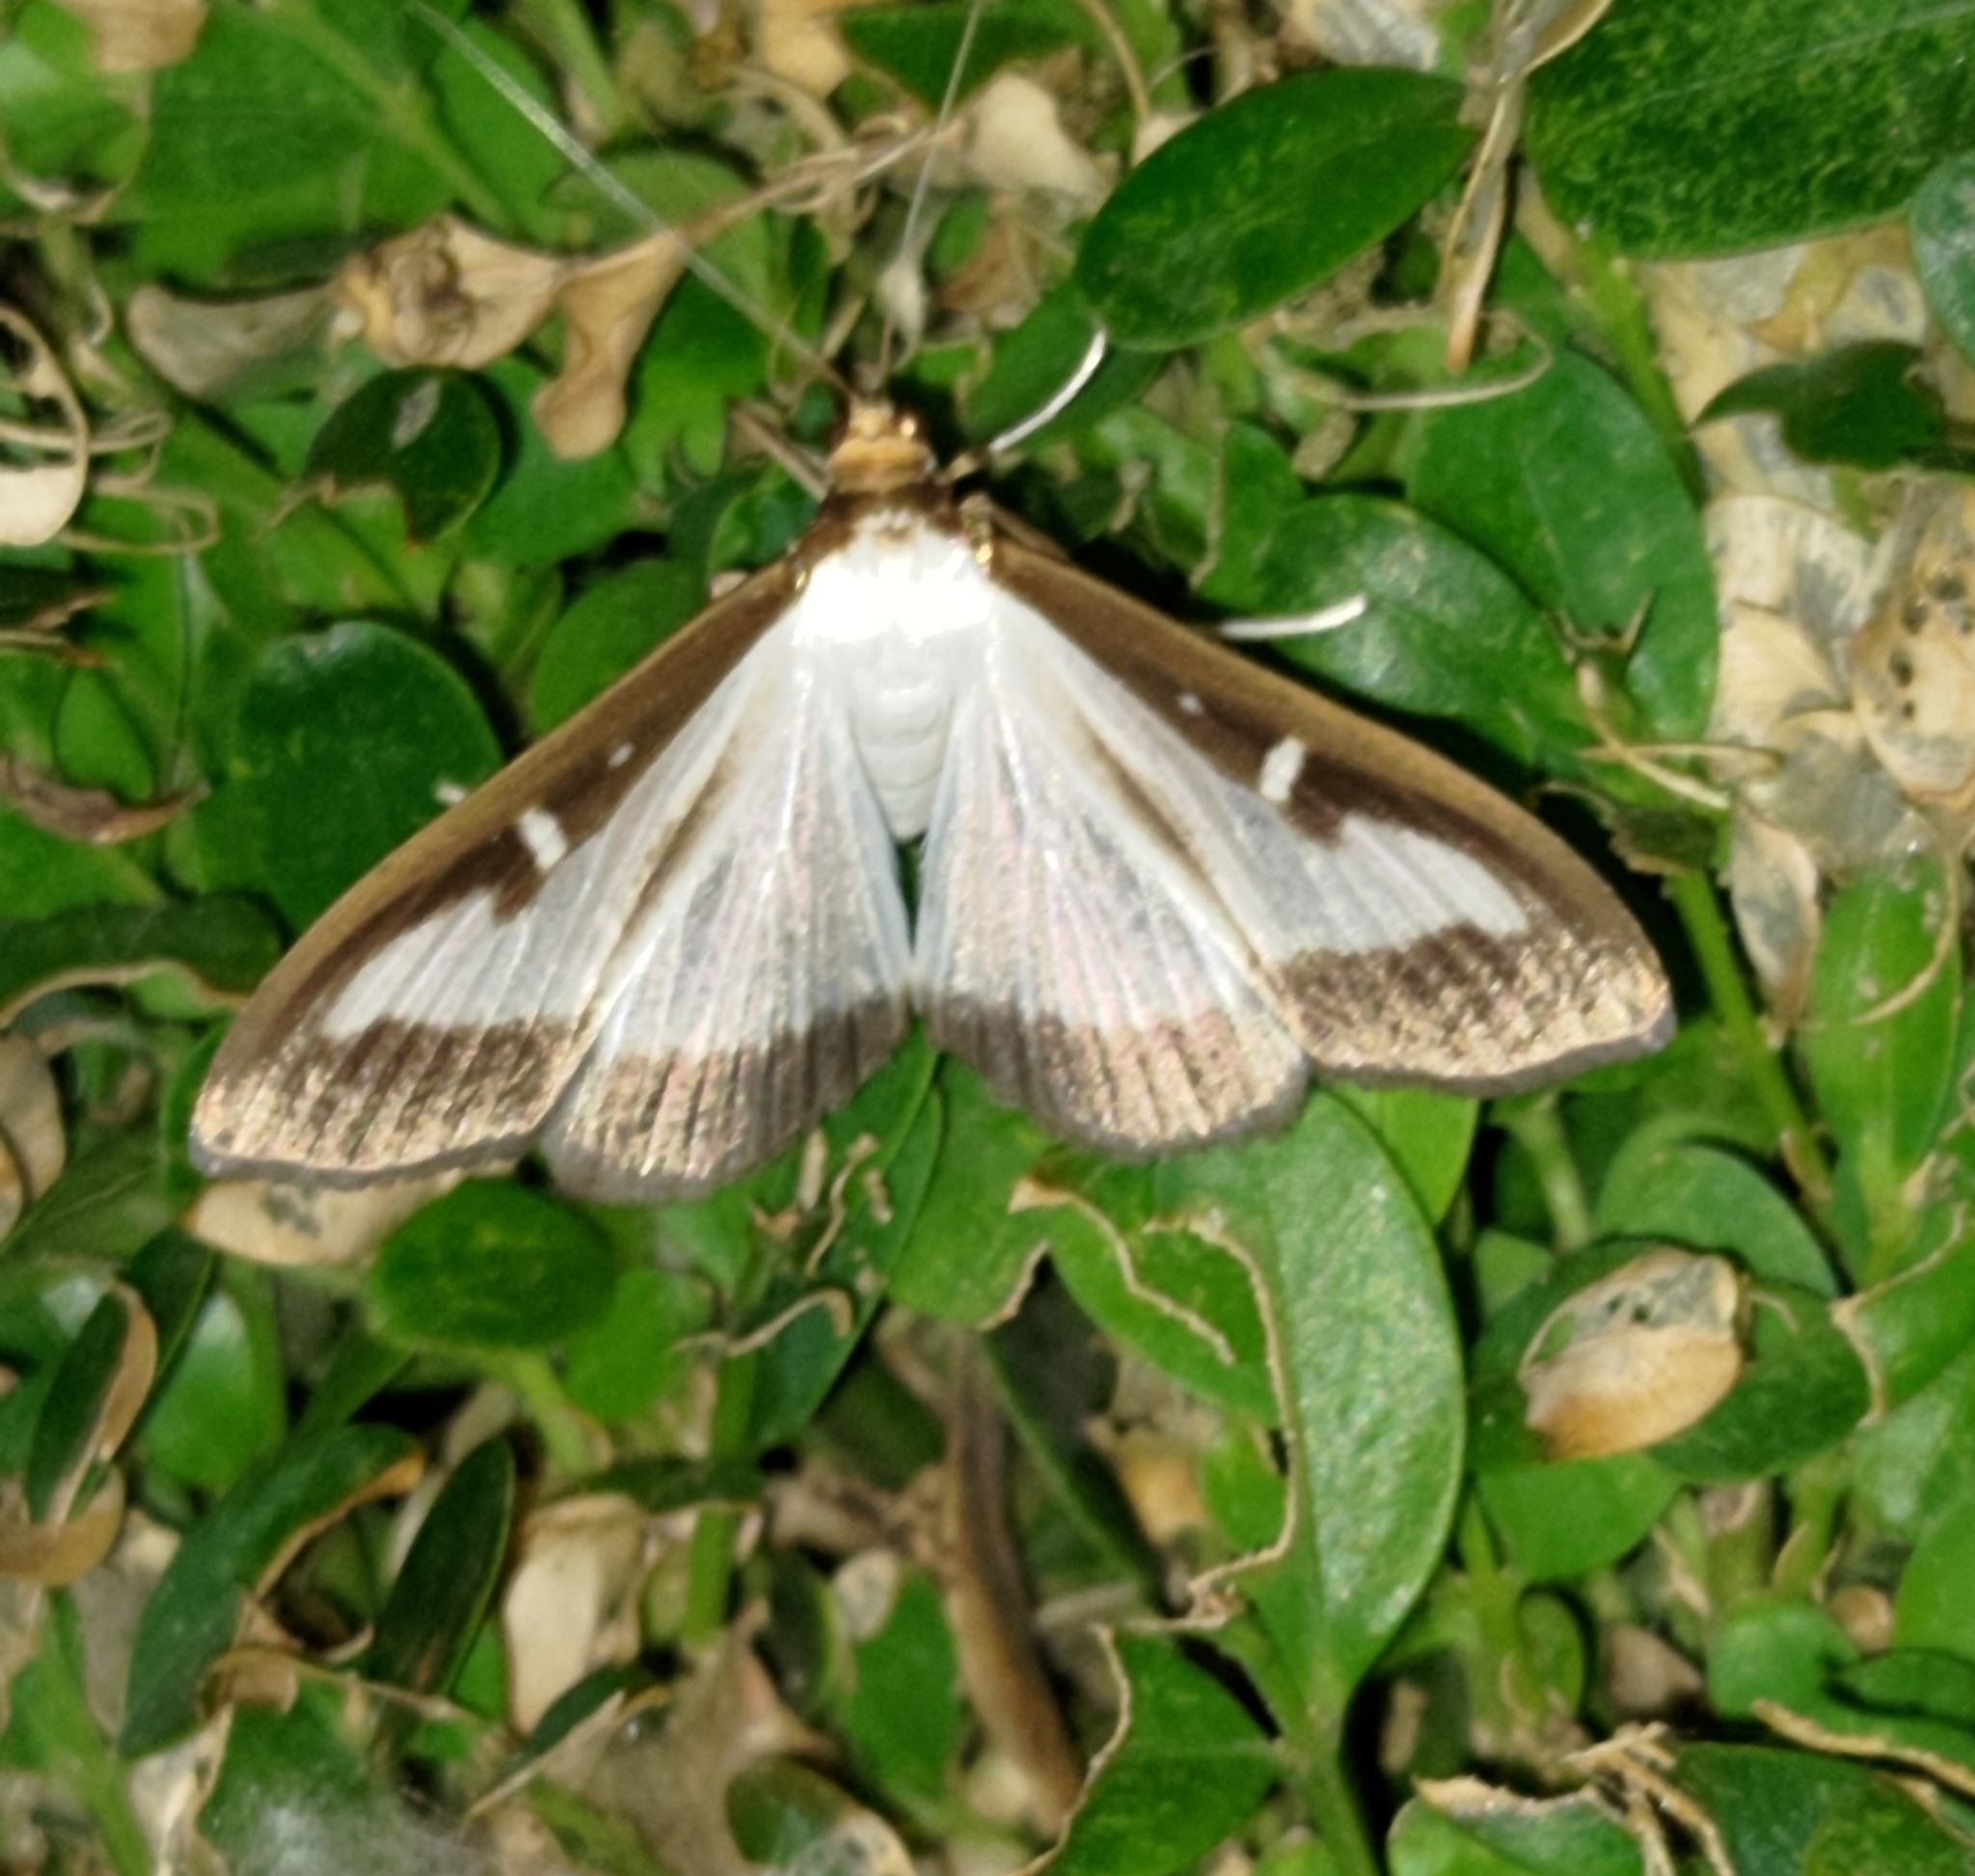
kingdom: Animalia
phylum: Arthropoda
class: Insecta
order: Lepidoptera
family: Crambidae
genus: Cydalima
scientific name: Cydalima perspectalis
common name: Box tree moth
